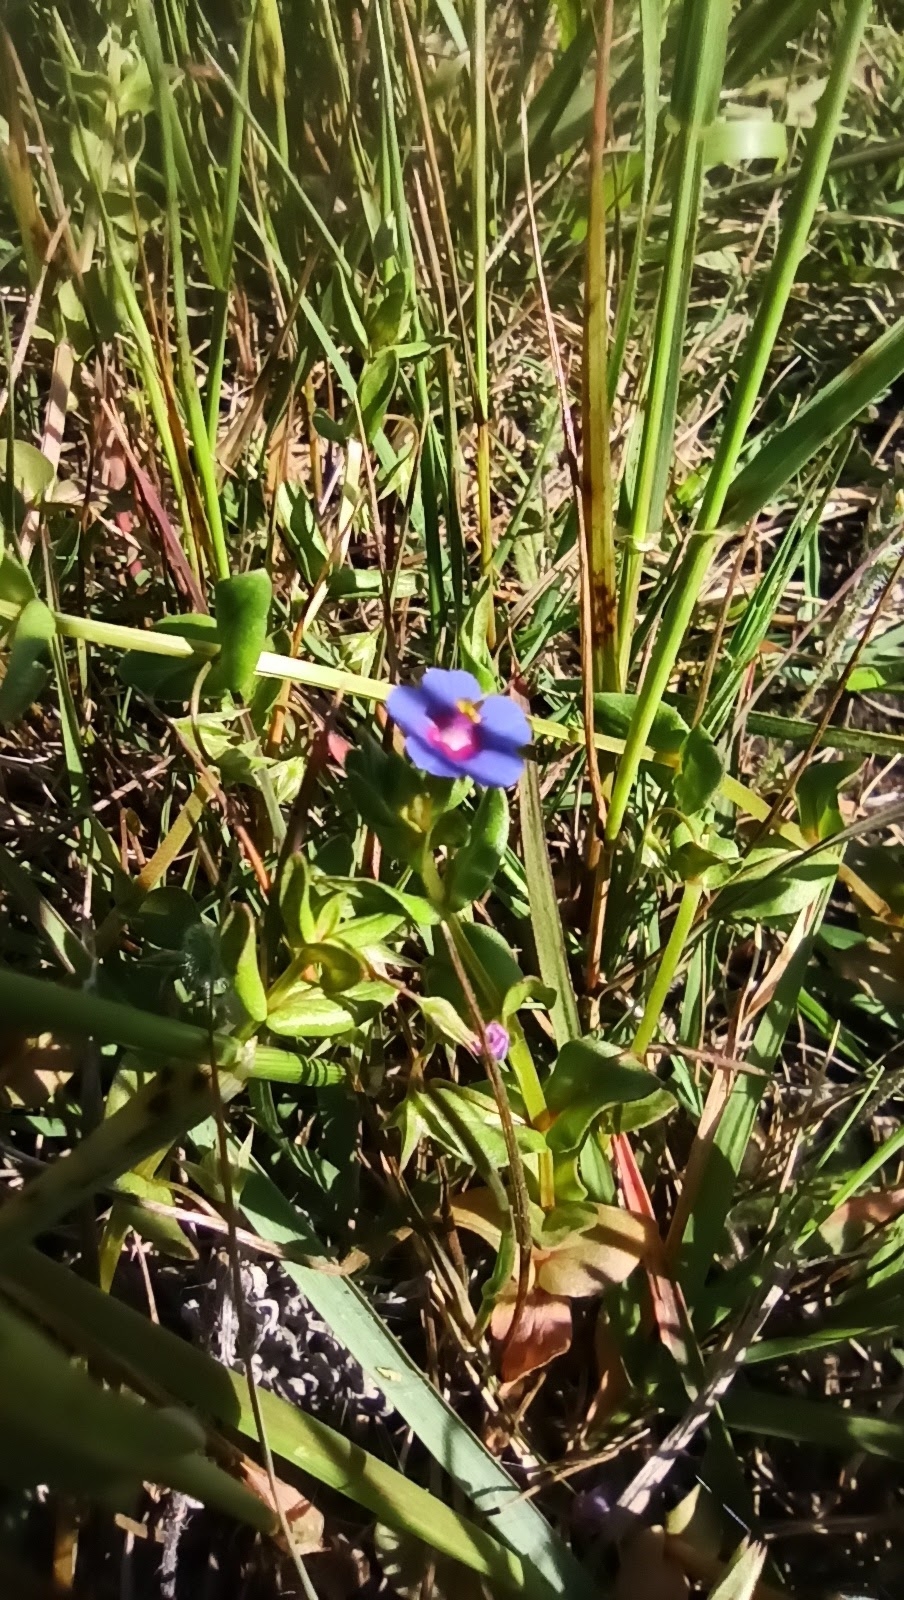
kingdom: Plantae
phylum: Tracheophyta
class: Magnoliopsida
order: Ericales
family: Primulaceae
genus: Lysimachia
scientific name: Lysimachia arvensis
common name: Scarlet pimpernel
